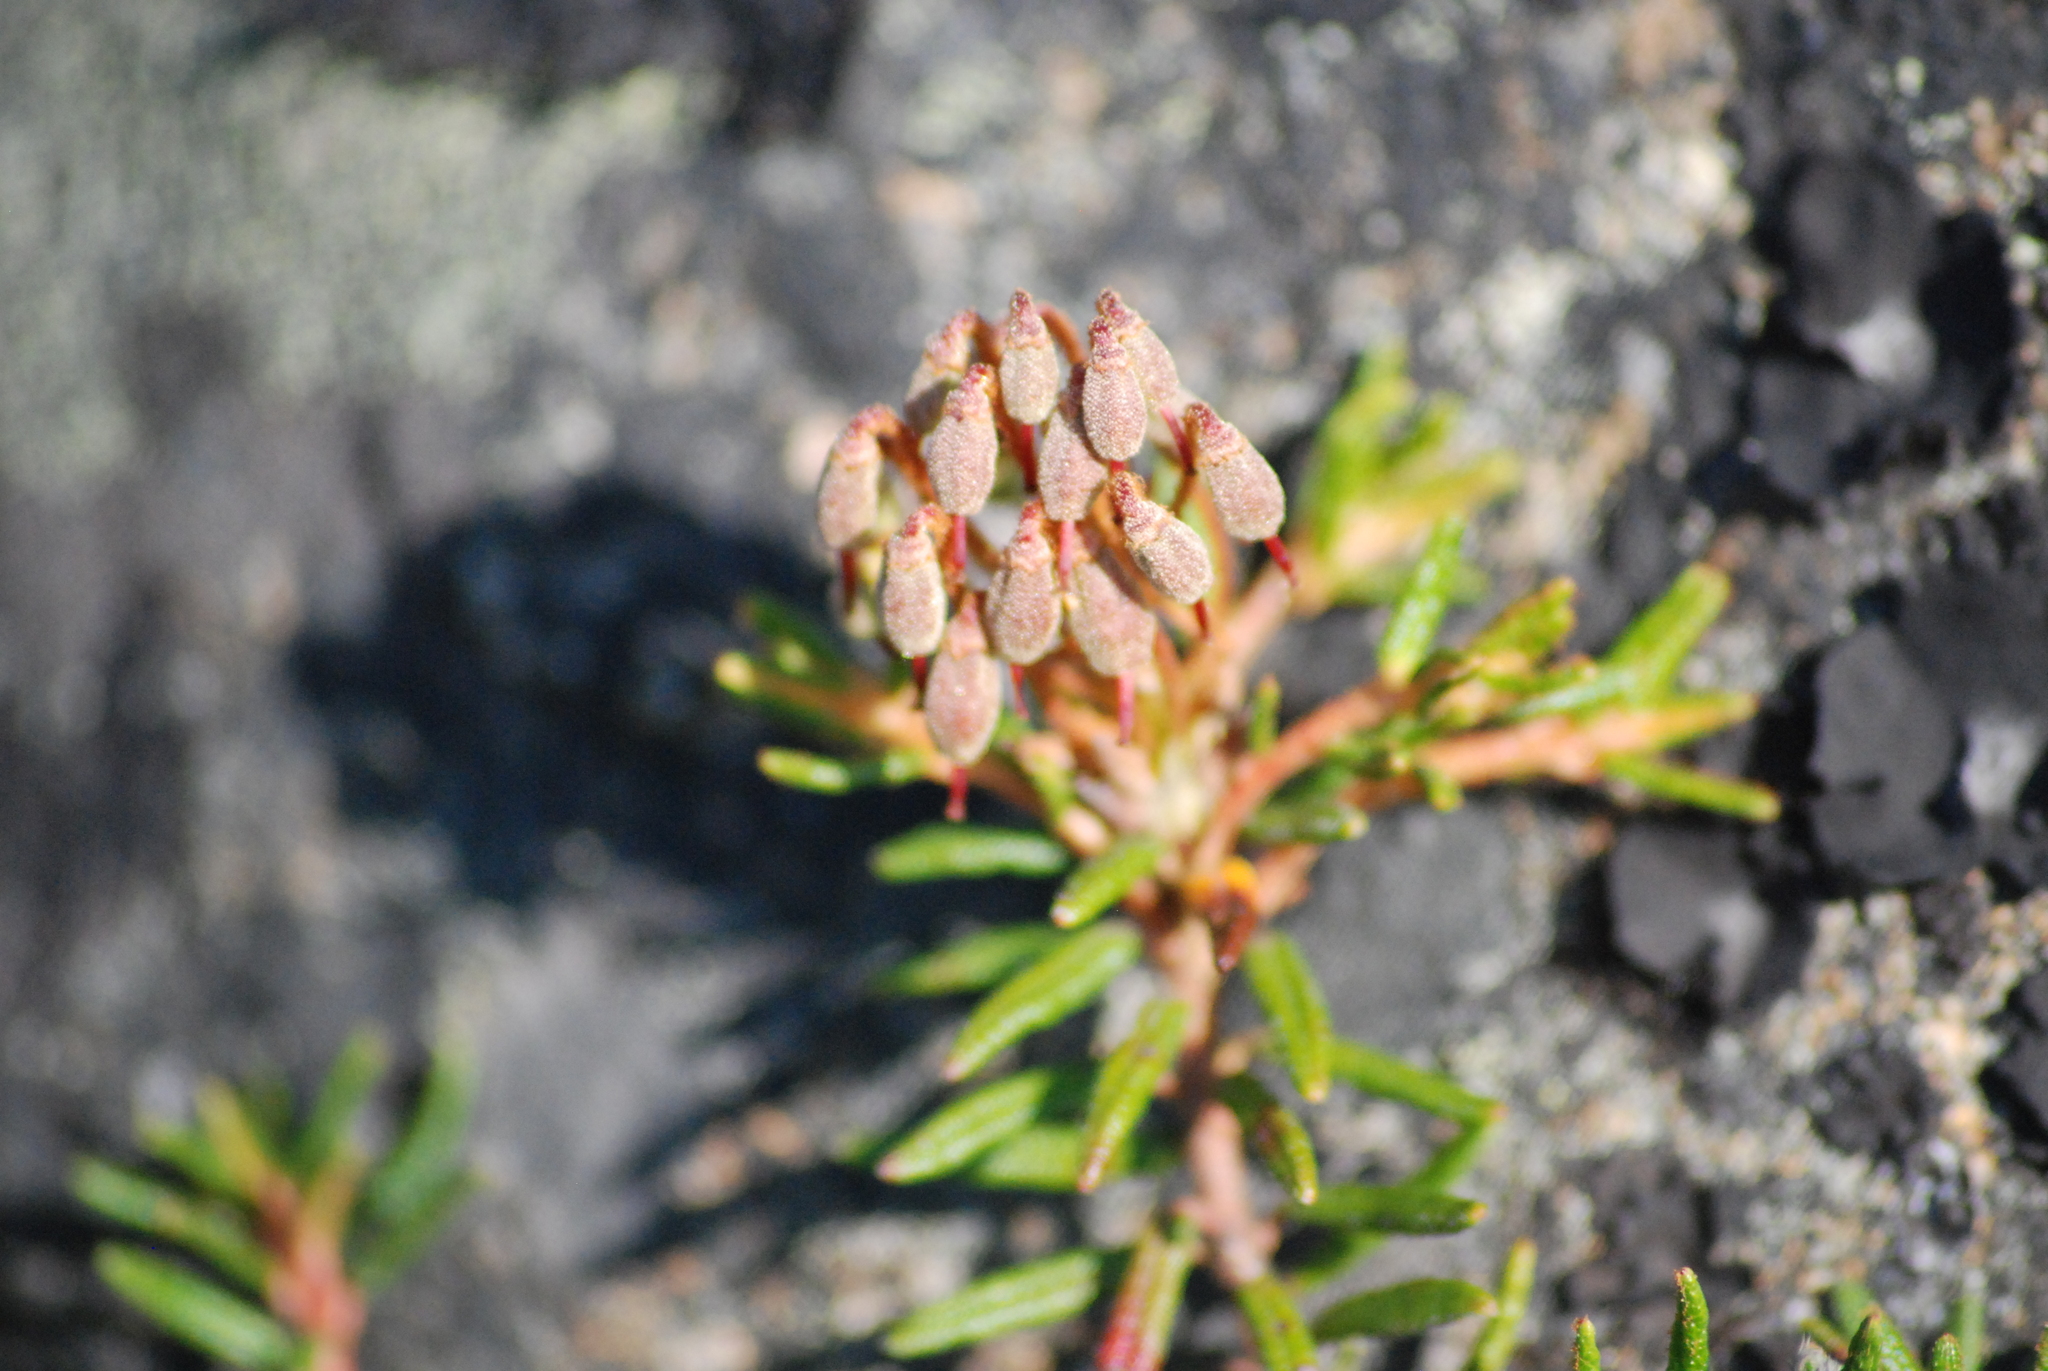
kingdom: Plantae
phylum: Tracheophyta
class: Magnoliopsida
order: Ericales
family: Ericaceae
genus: Rhododendron
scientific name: Rhododendron tomentosum
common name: Marsh labrador tea
